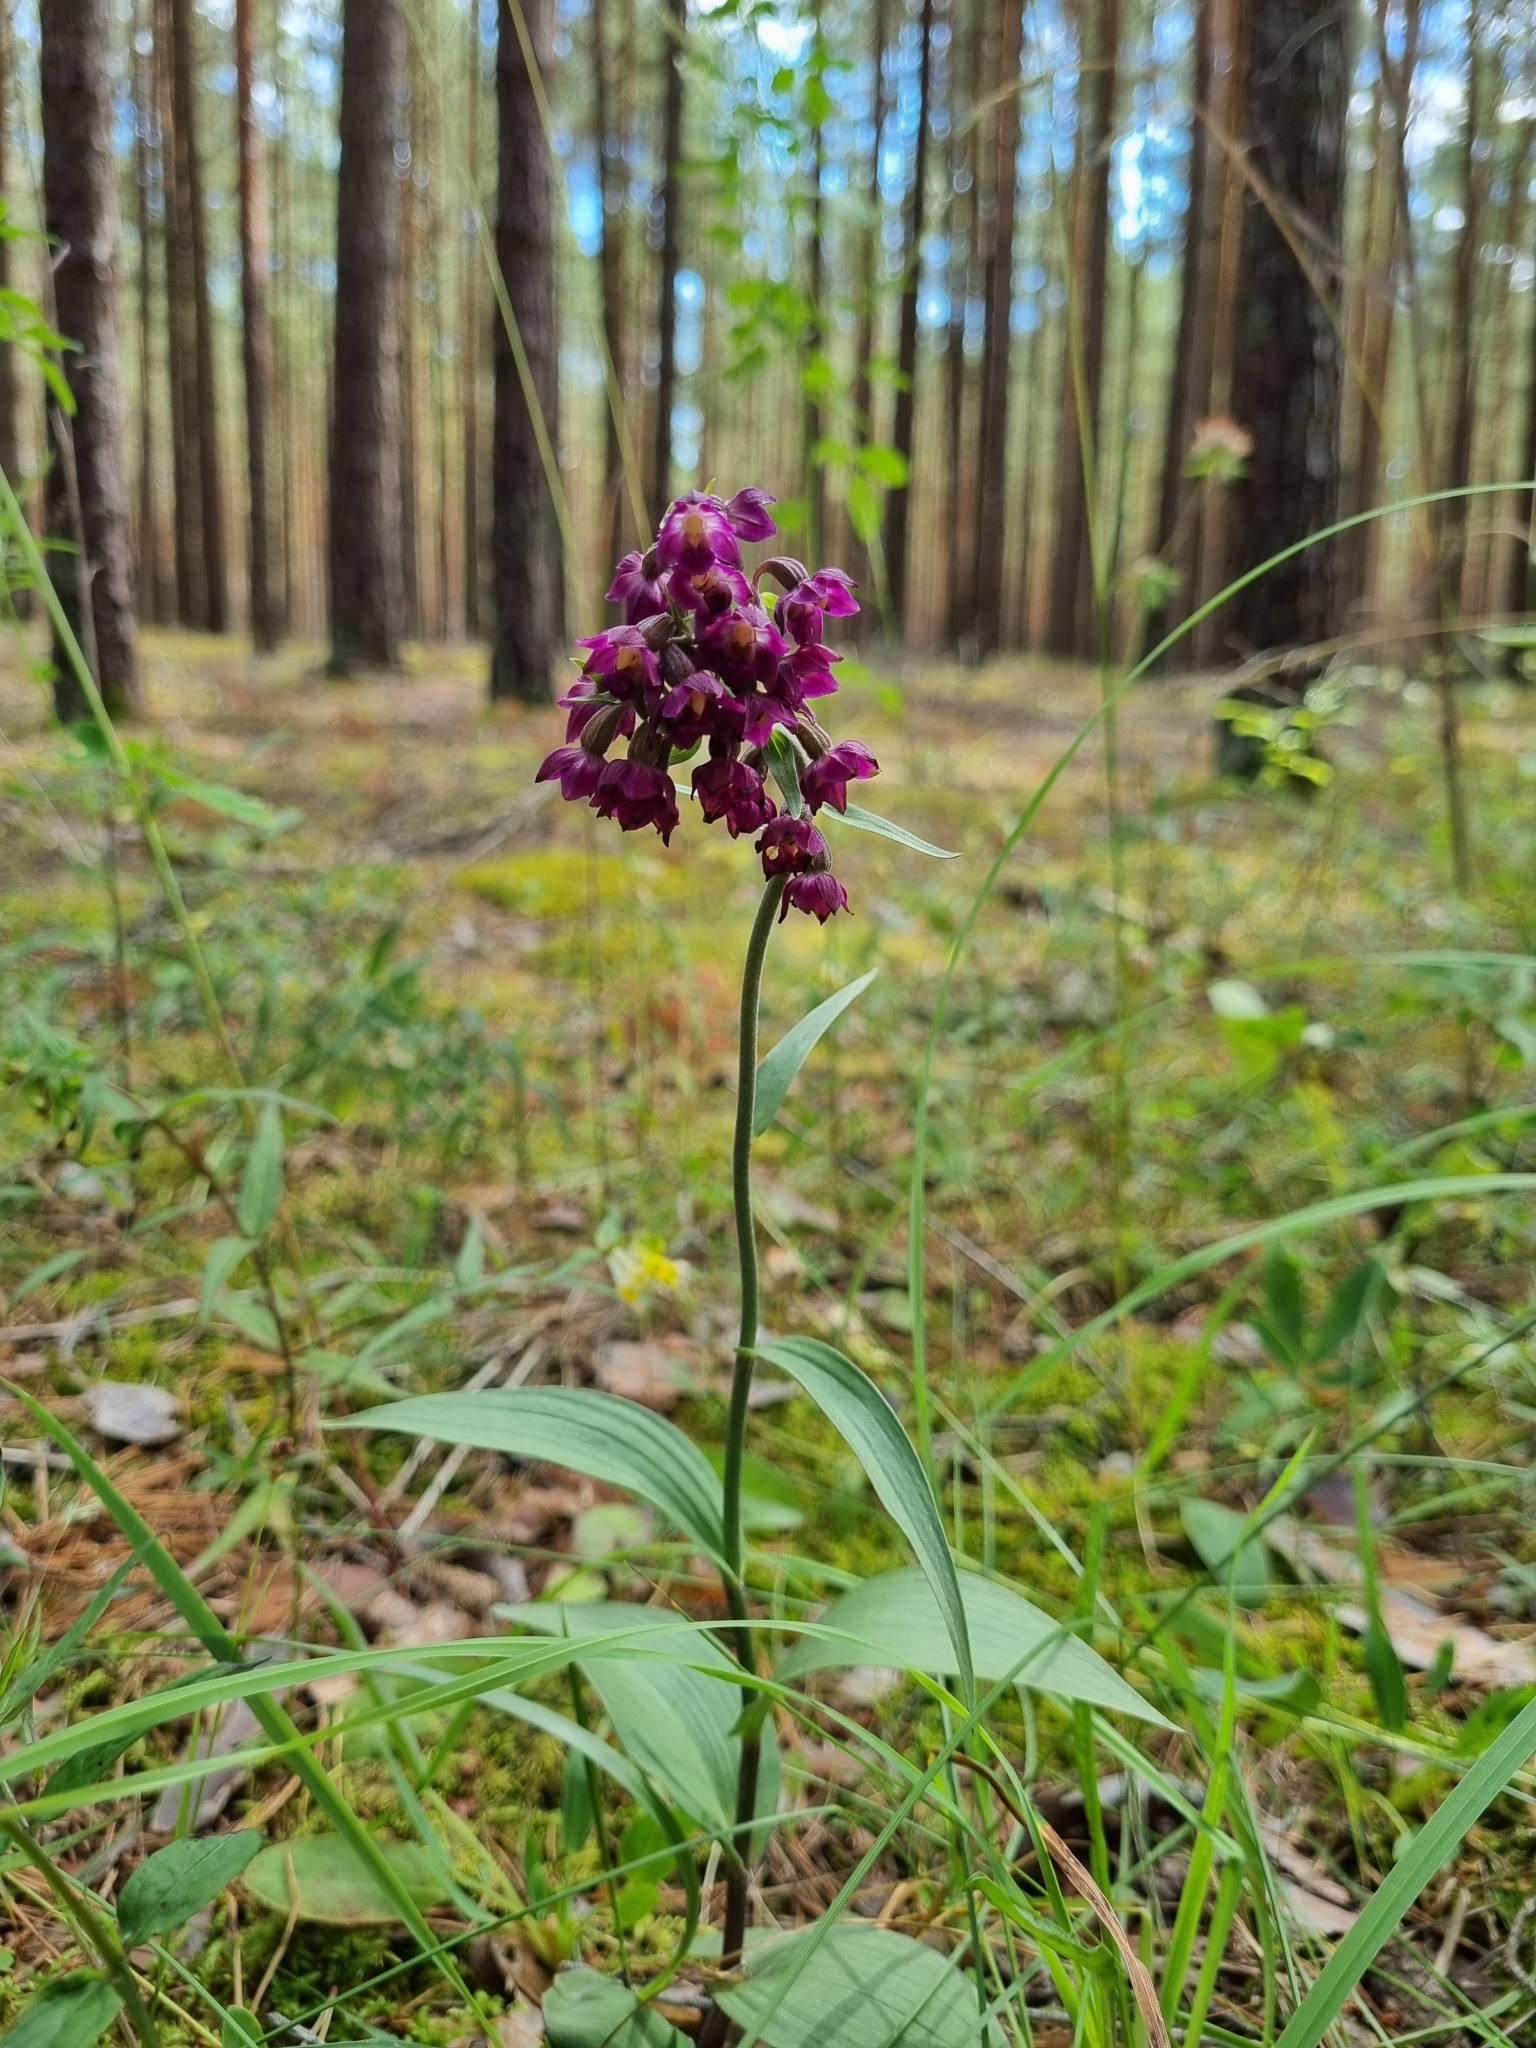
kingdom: Plantae
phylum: Tracheophyta
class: Liliopsida
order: Asparagales
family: Orchidaceae
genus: Epipactis
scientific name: Epipactis atrorubens
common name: Dark-red helleborine
